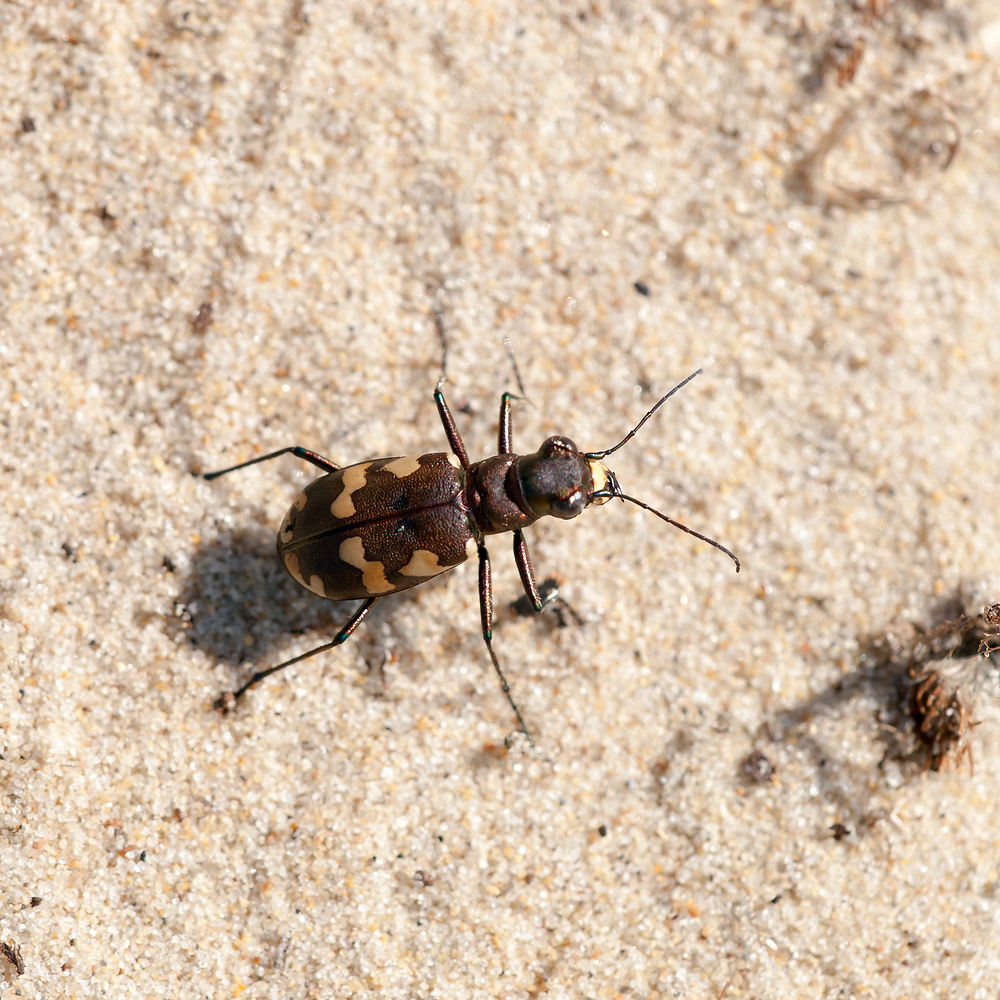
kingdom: Animalia
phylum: Arthropoda
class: Insecta
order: Coleoptera
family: Carabidae
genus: Cicindela
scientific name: Cicindela hybrida
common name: Northern dune tiger beetle
